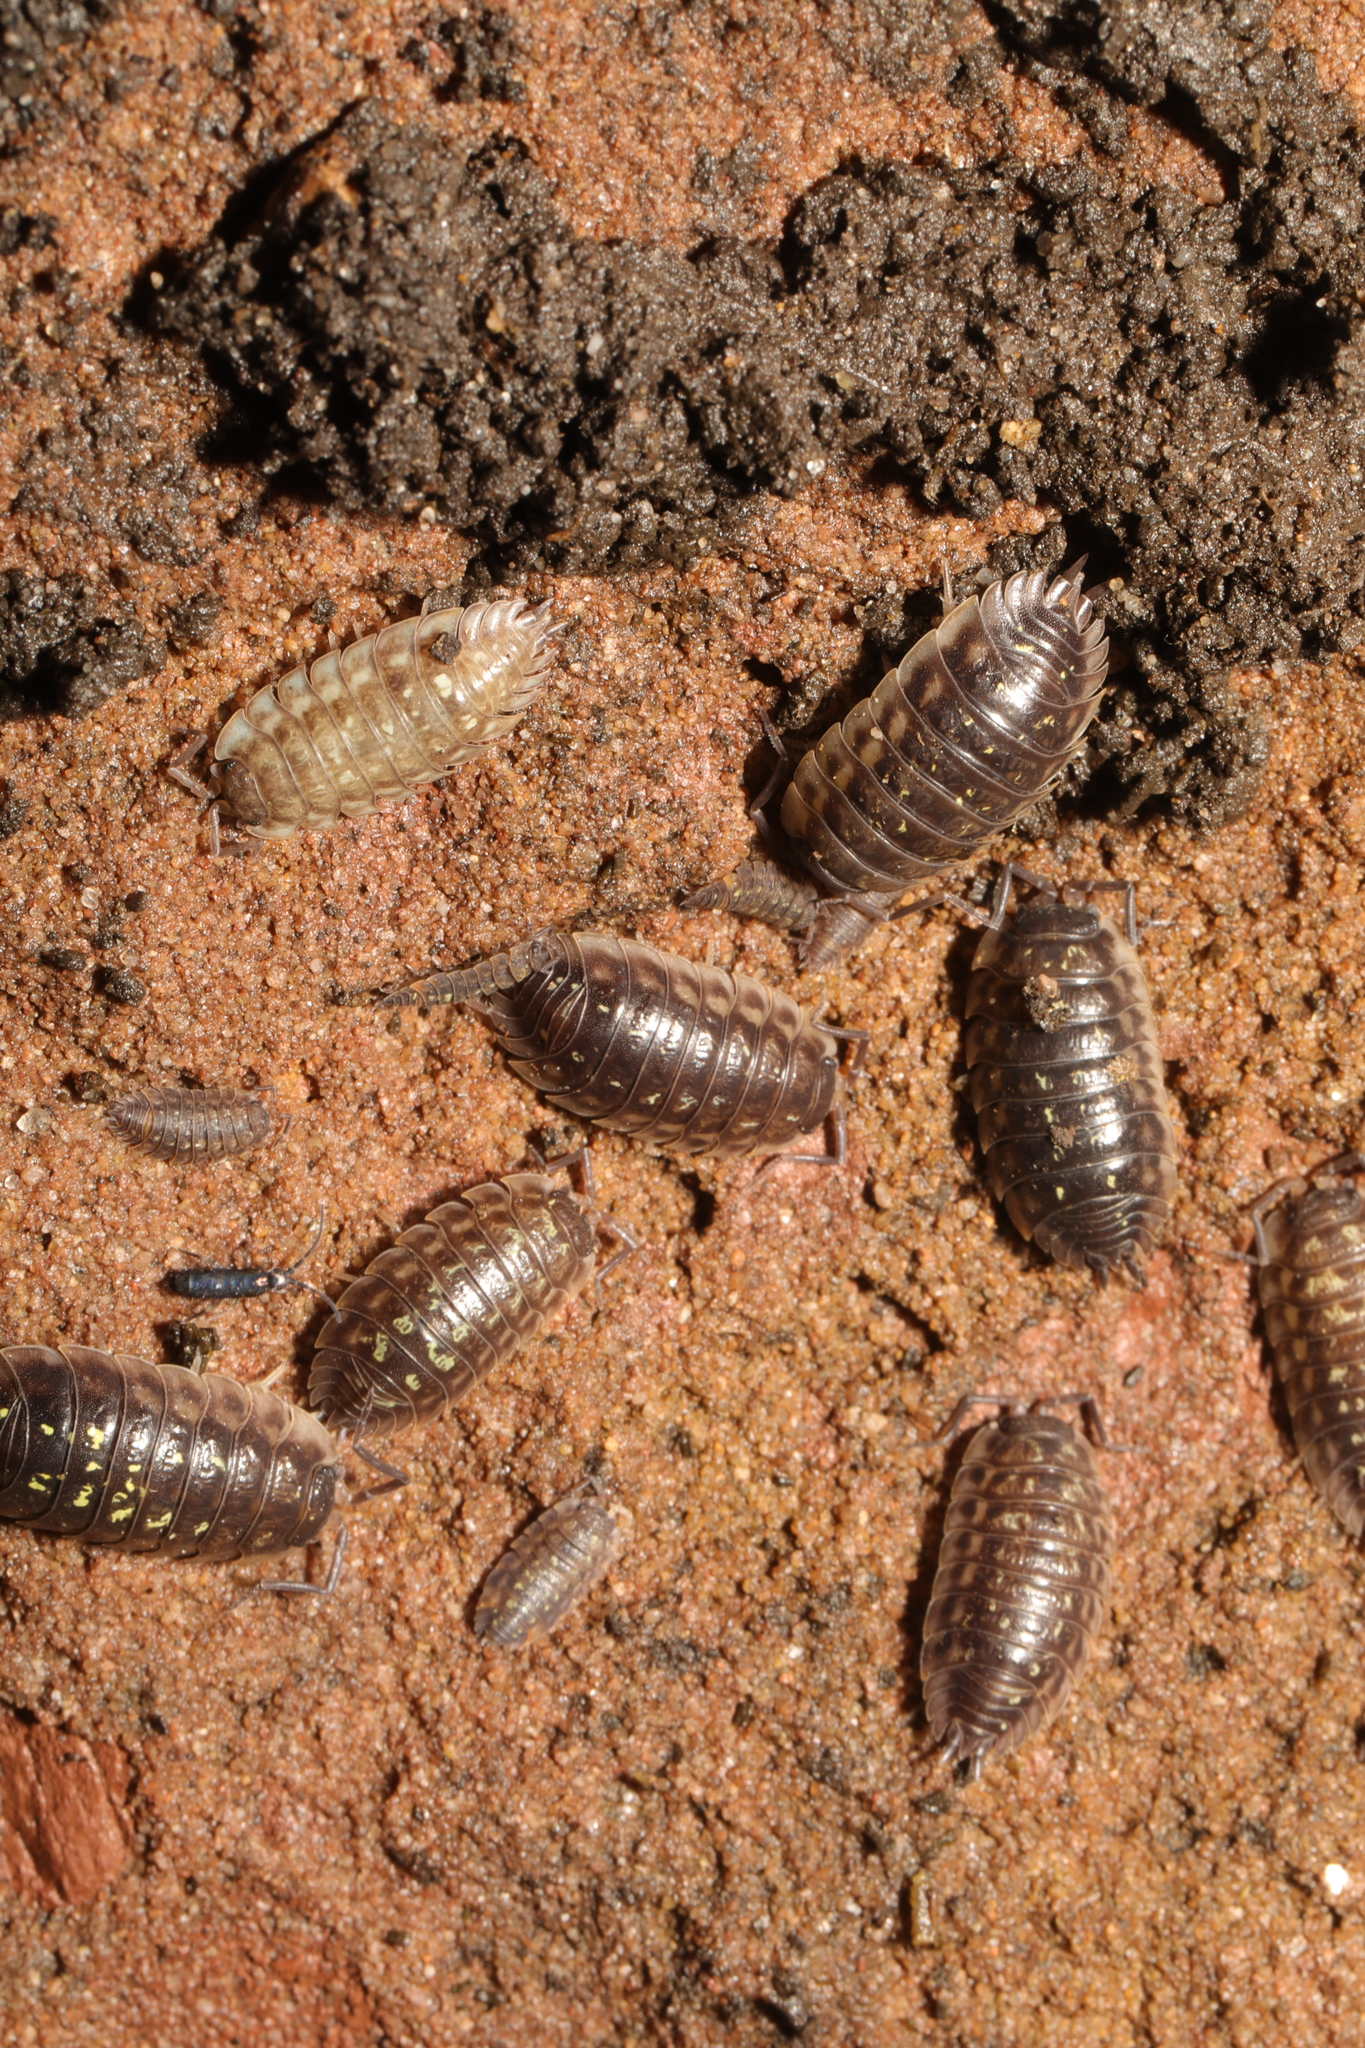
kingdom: Animalia
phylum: Arthropoda
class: Malacostraca
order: Isopoda
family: Oniscidae
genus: Oniscus
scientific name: Oniscus asellus
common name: Common shiny woodlouse
